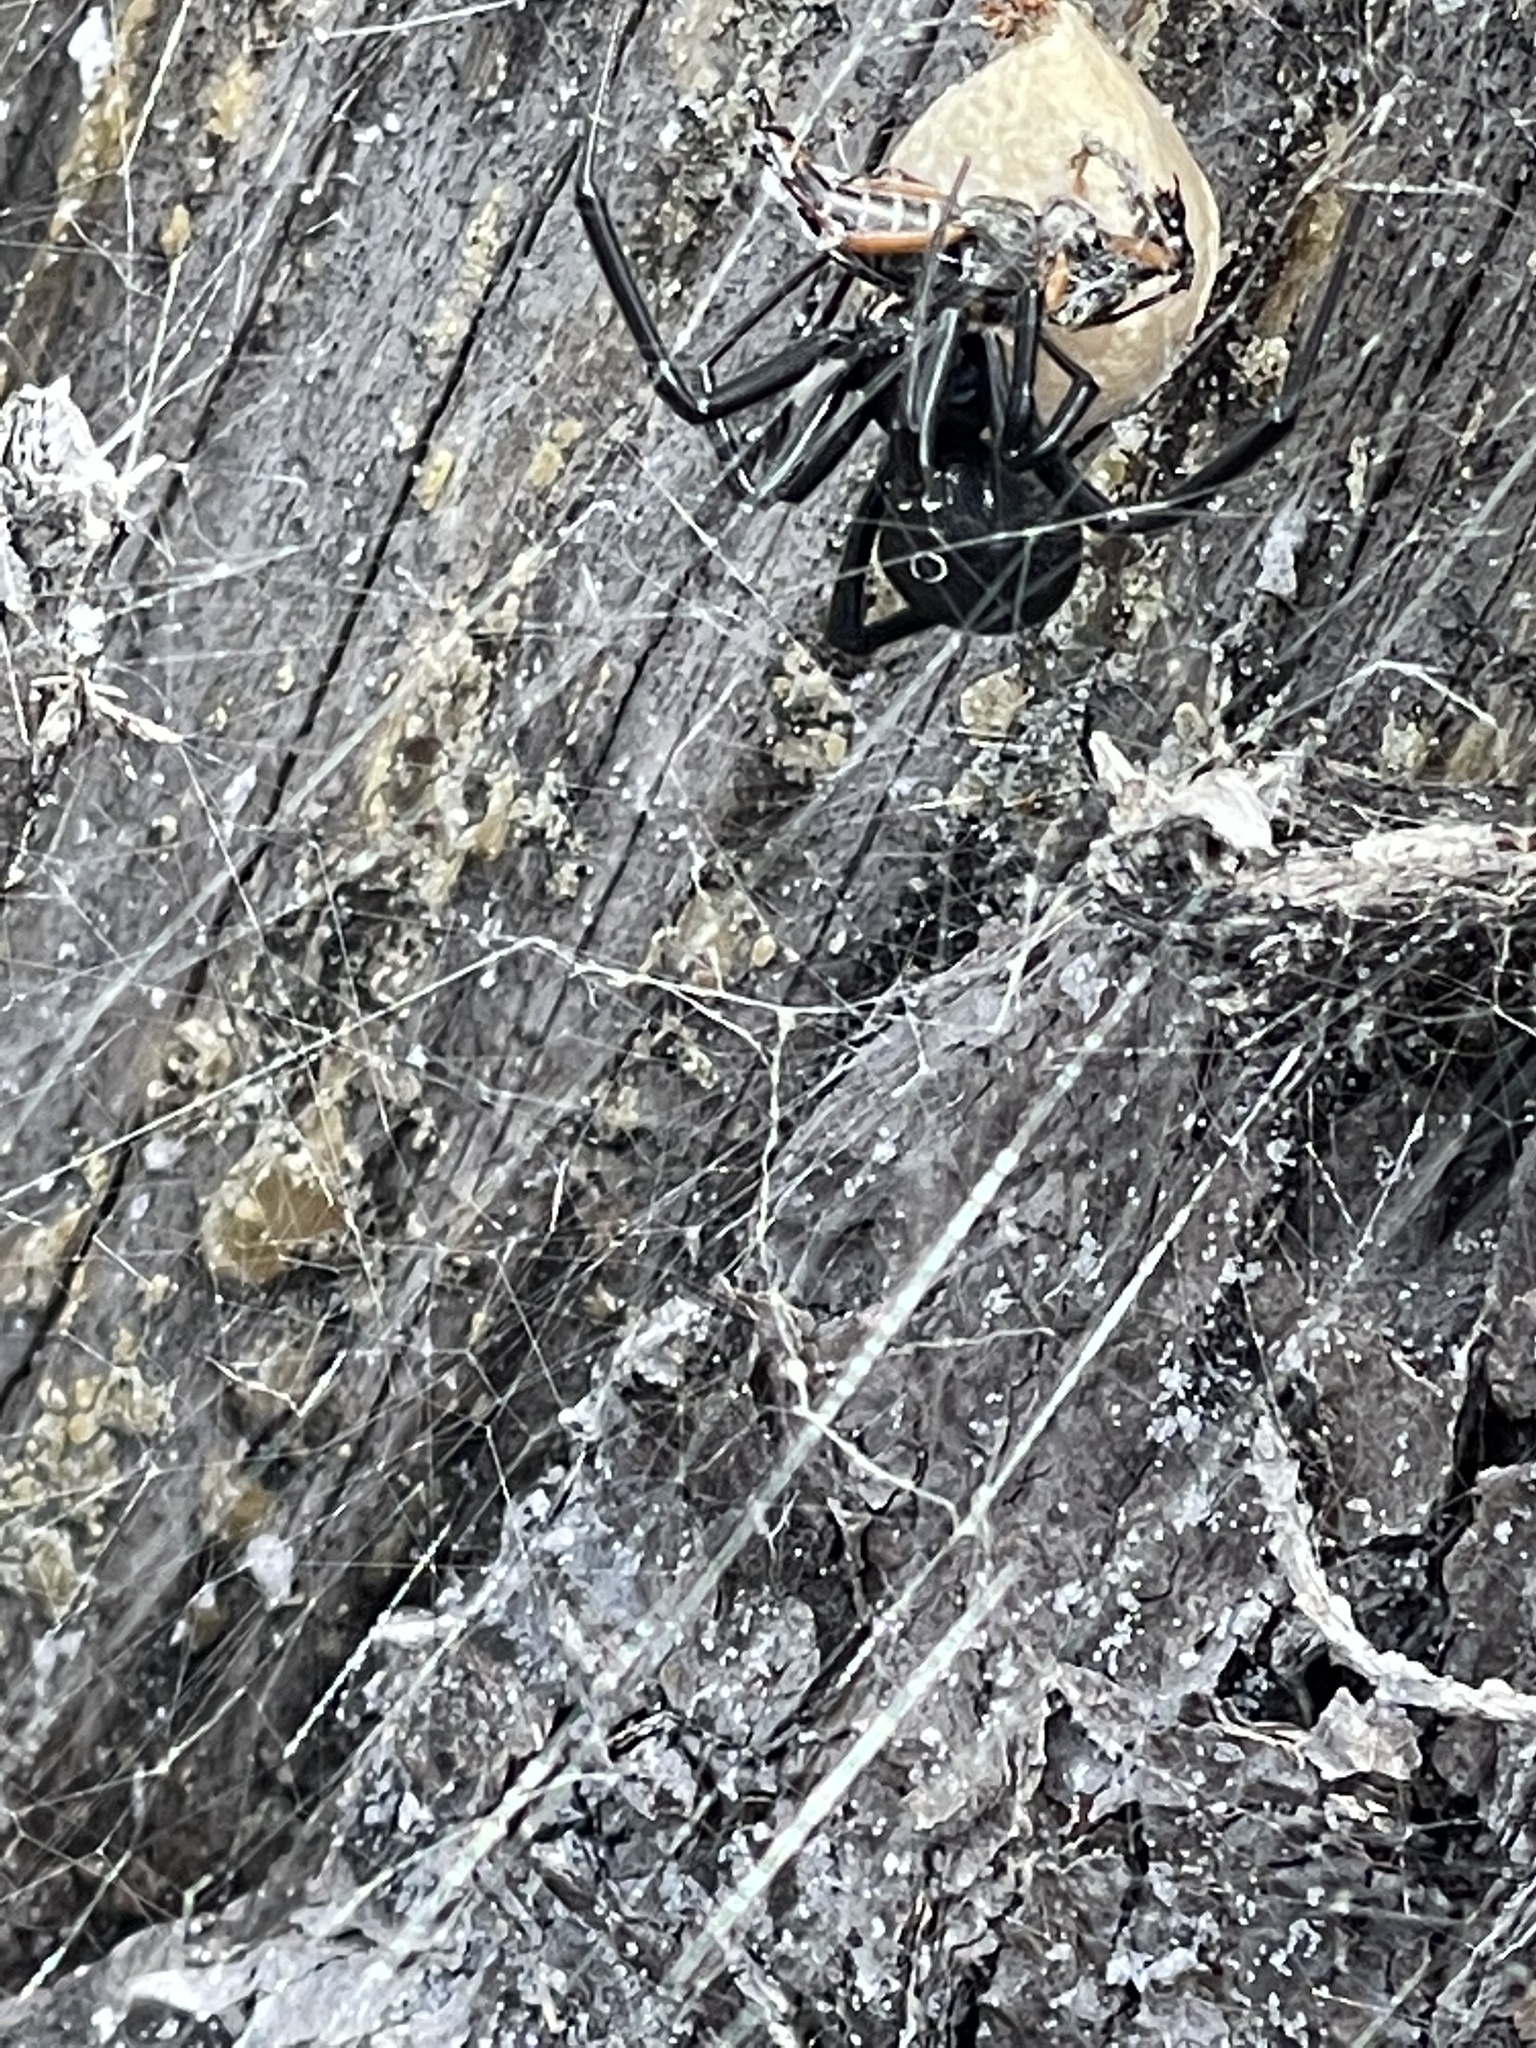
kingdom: Animalia
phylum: Arthropoda
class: Arachnida
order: Araneae
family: Theridiidae
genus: Latrodectus
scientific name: Latrodectus mactans
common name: Cobweb spiders
